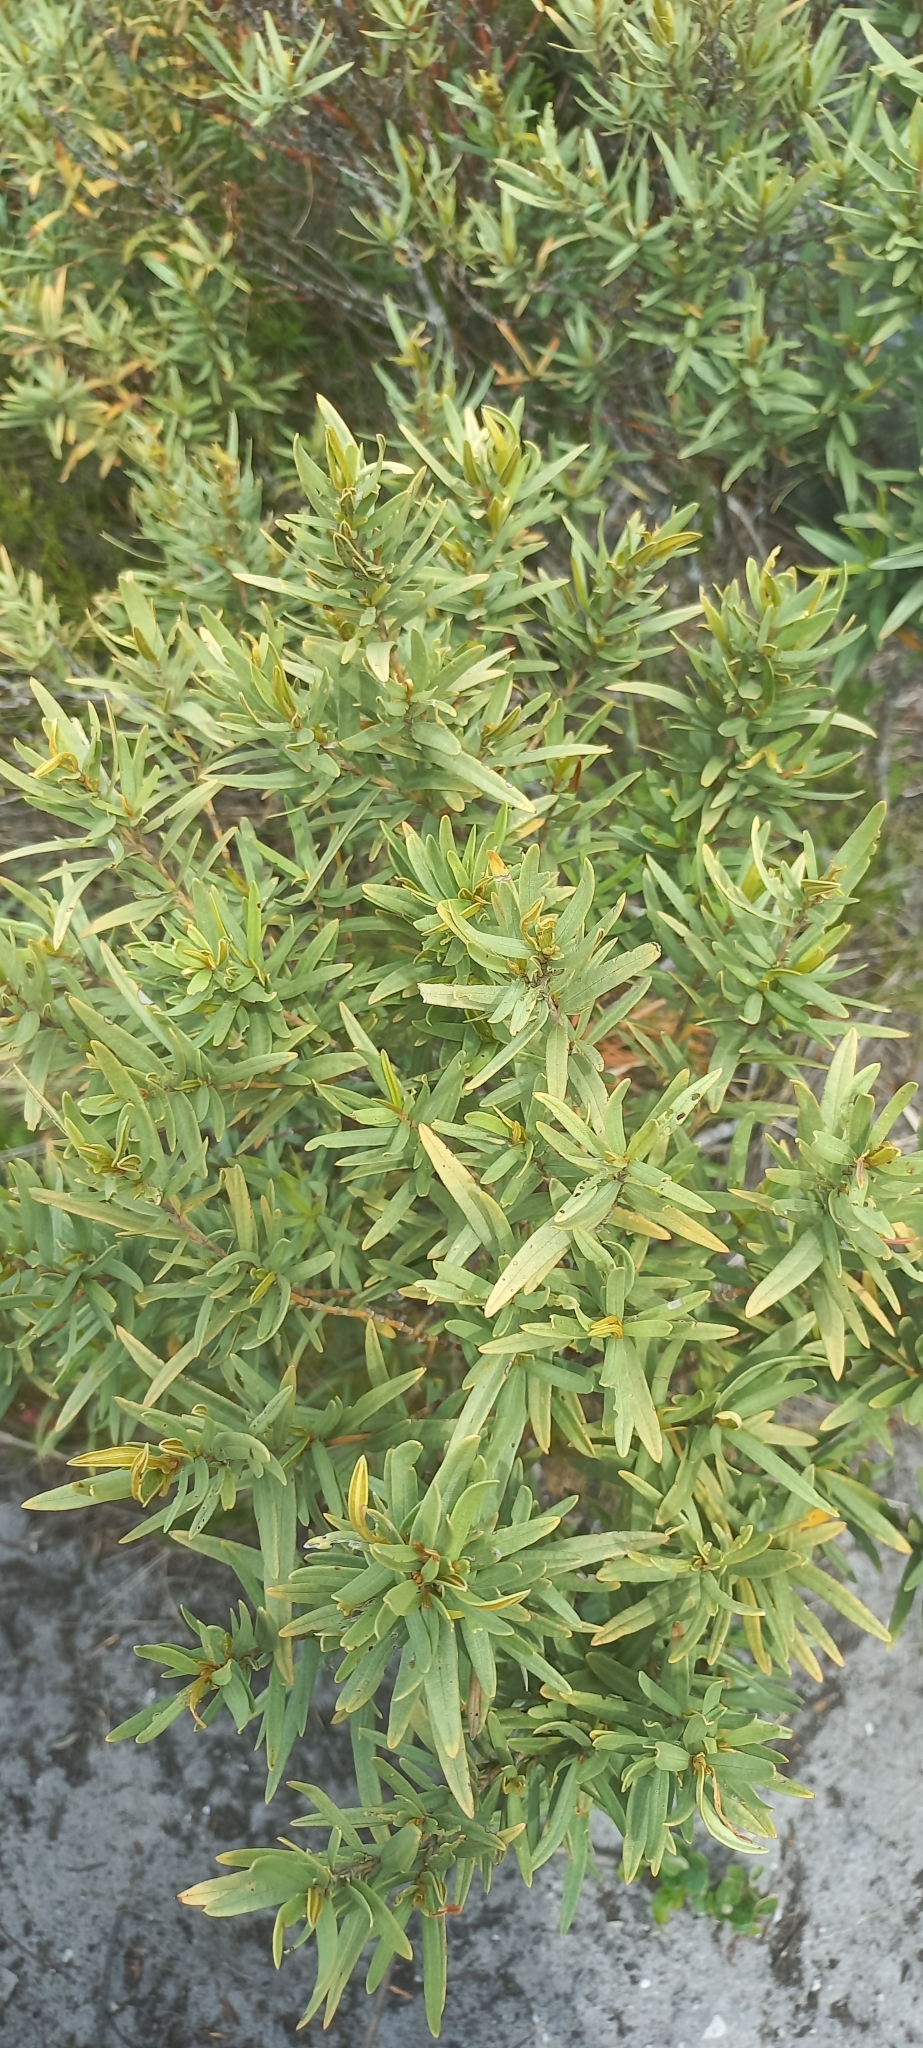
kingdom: Plantae
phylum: Tracheophyta
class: Magnoliopsida
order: Cornales
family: Grubbiaceae
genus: Grubbia
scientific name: Grubbia tomentosa
